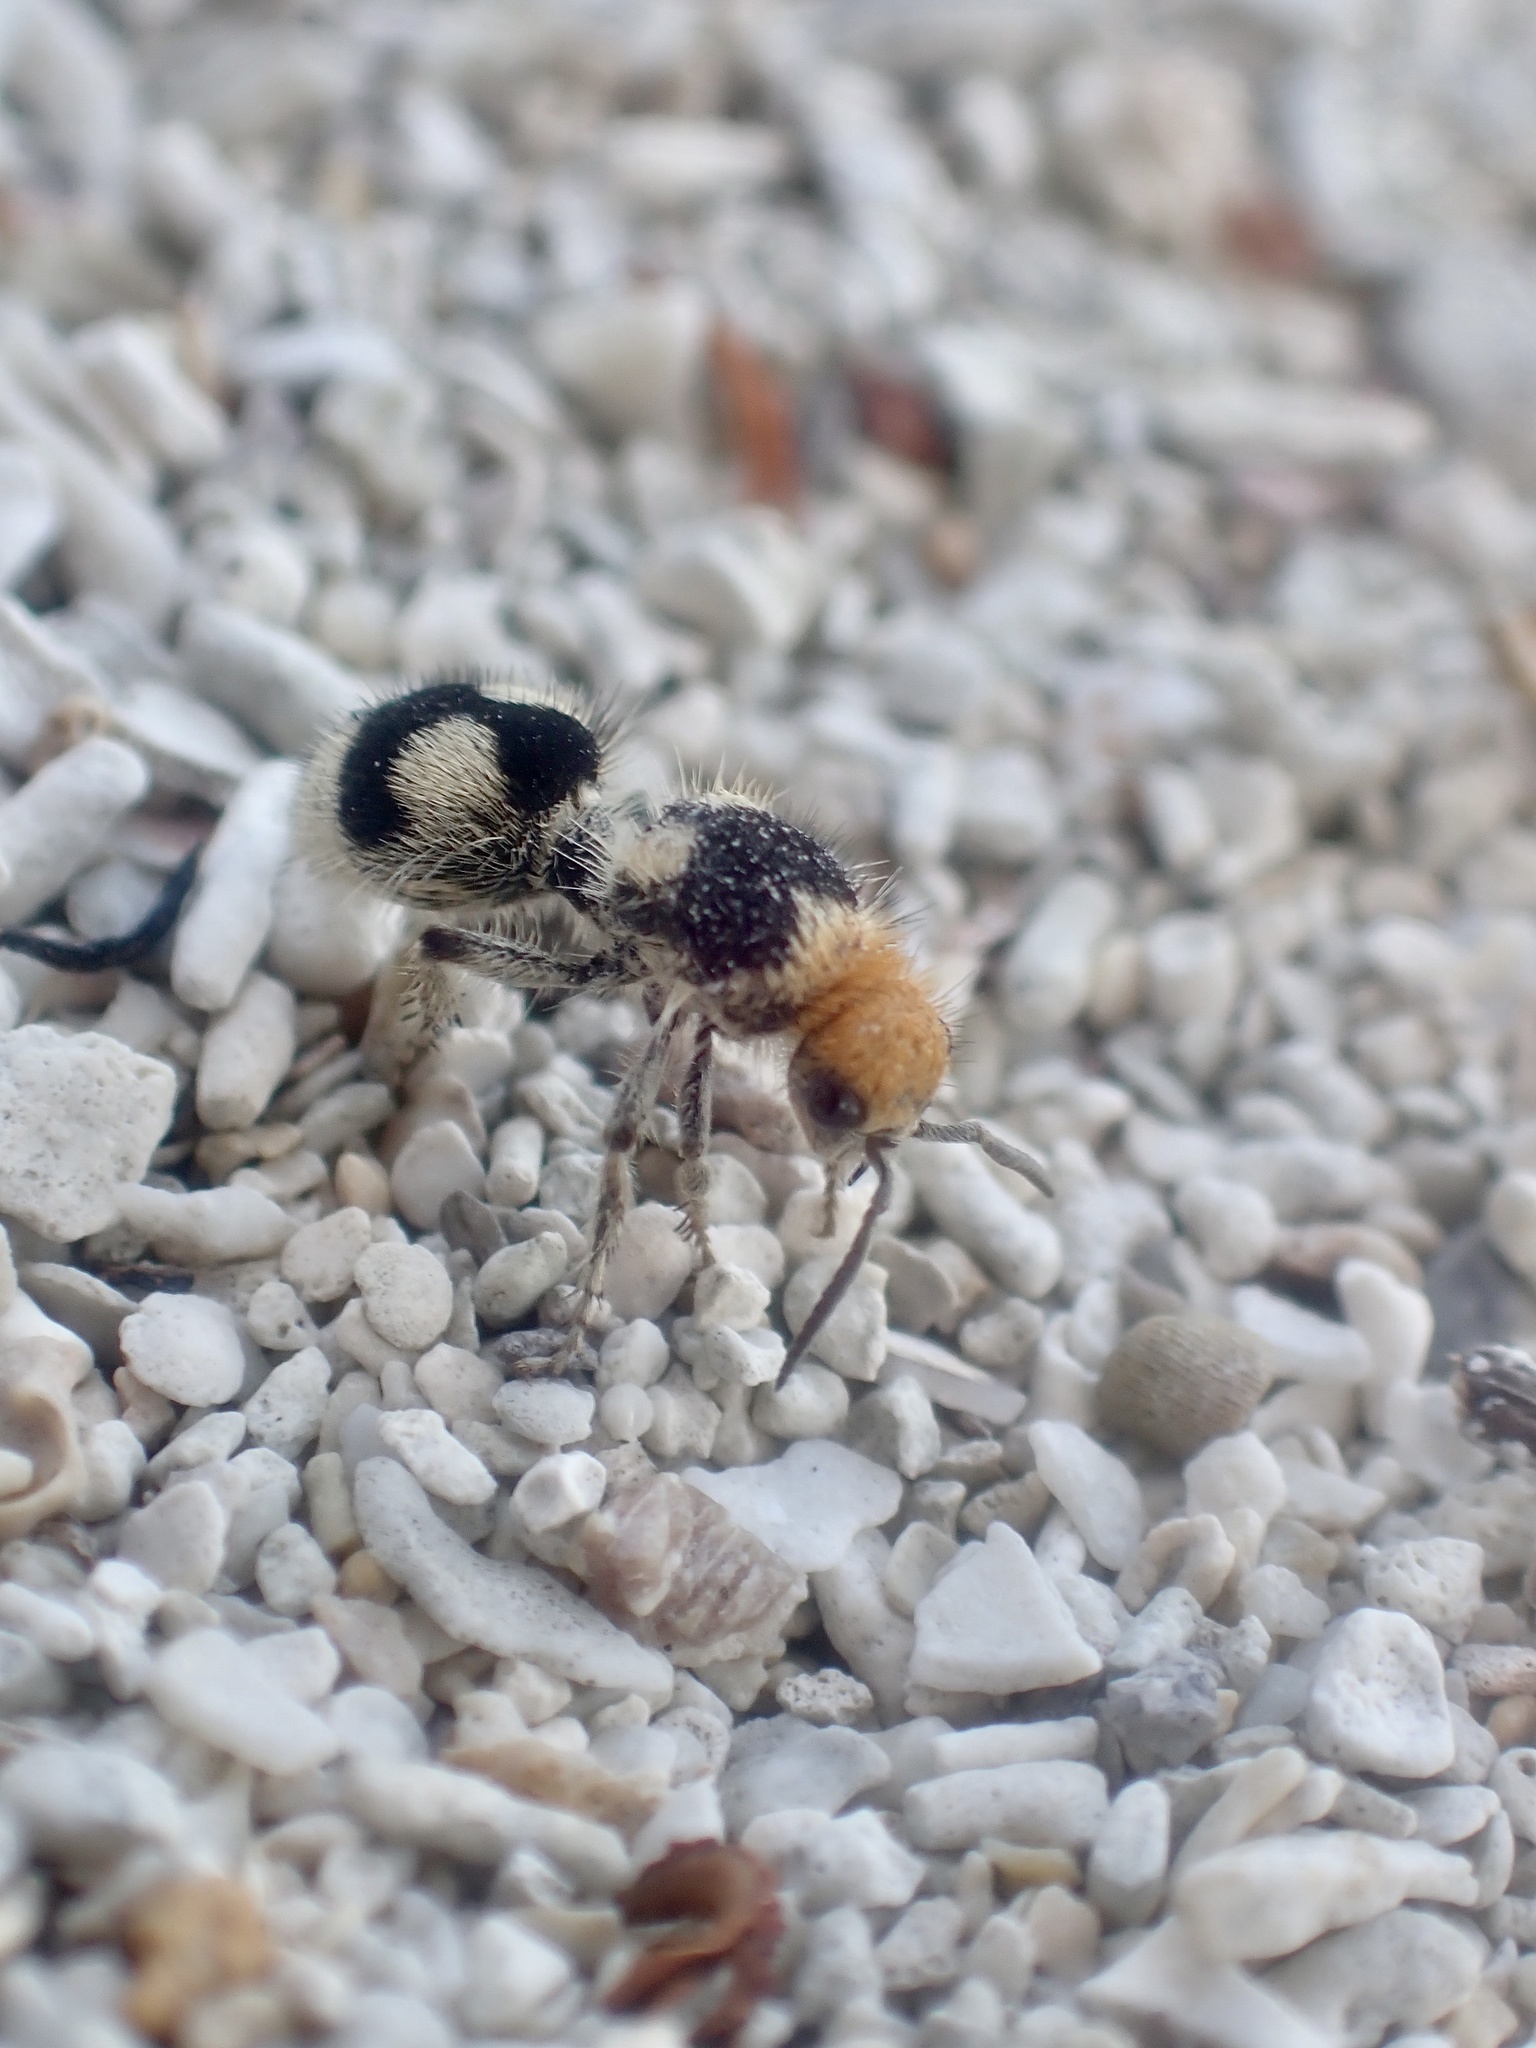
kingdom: Animalia
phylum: Arthropoda
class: Insecta
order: Hymenoptera
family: Mutillidae
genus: Dasymutilla
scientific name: Dasymutilla araneoides
